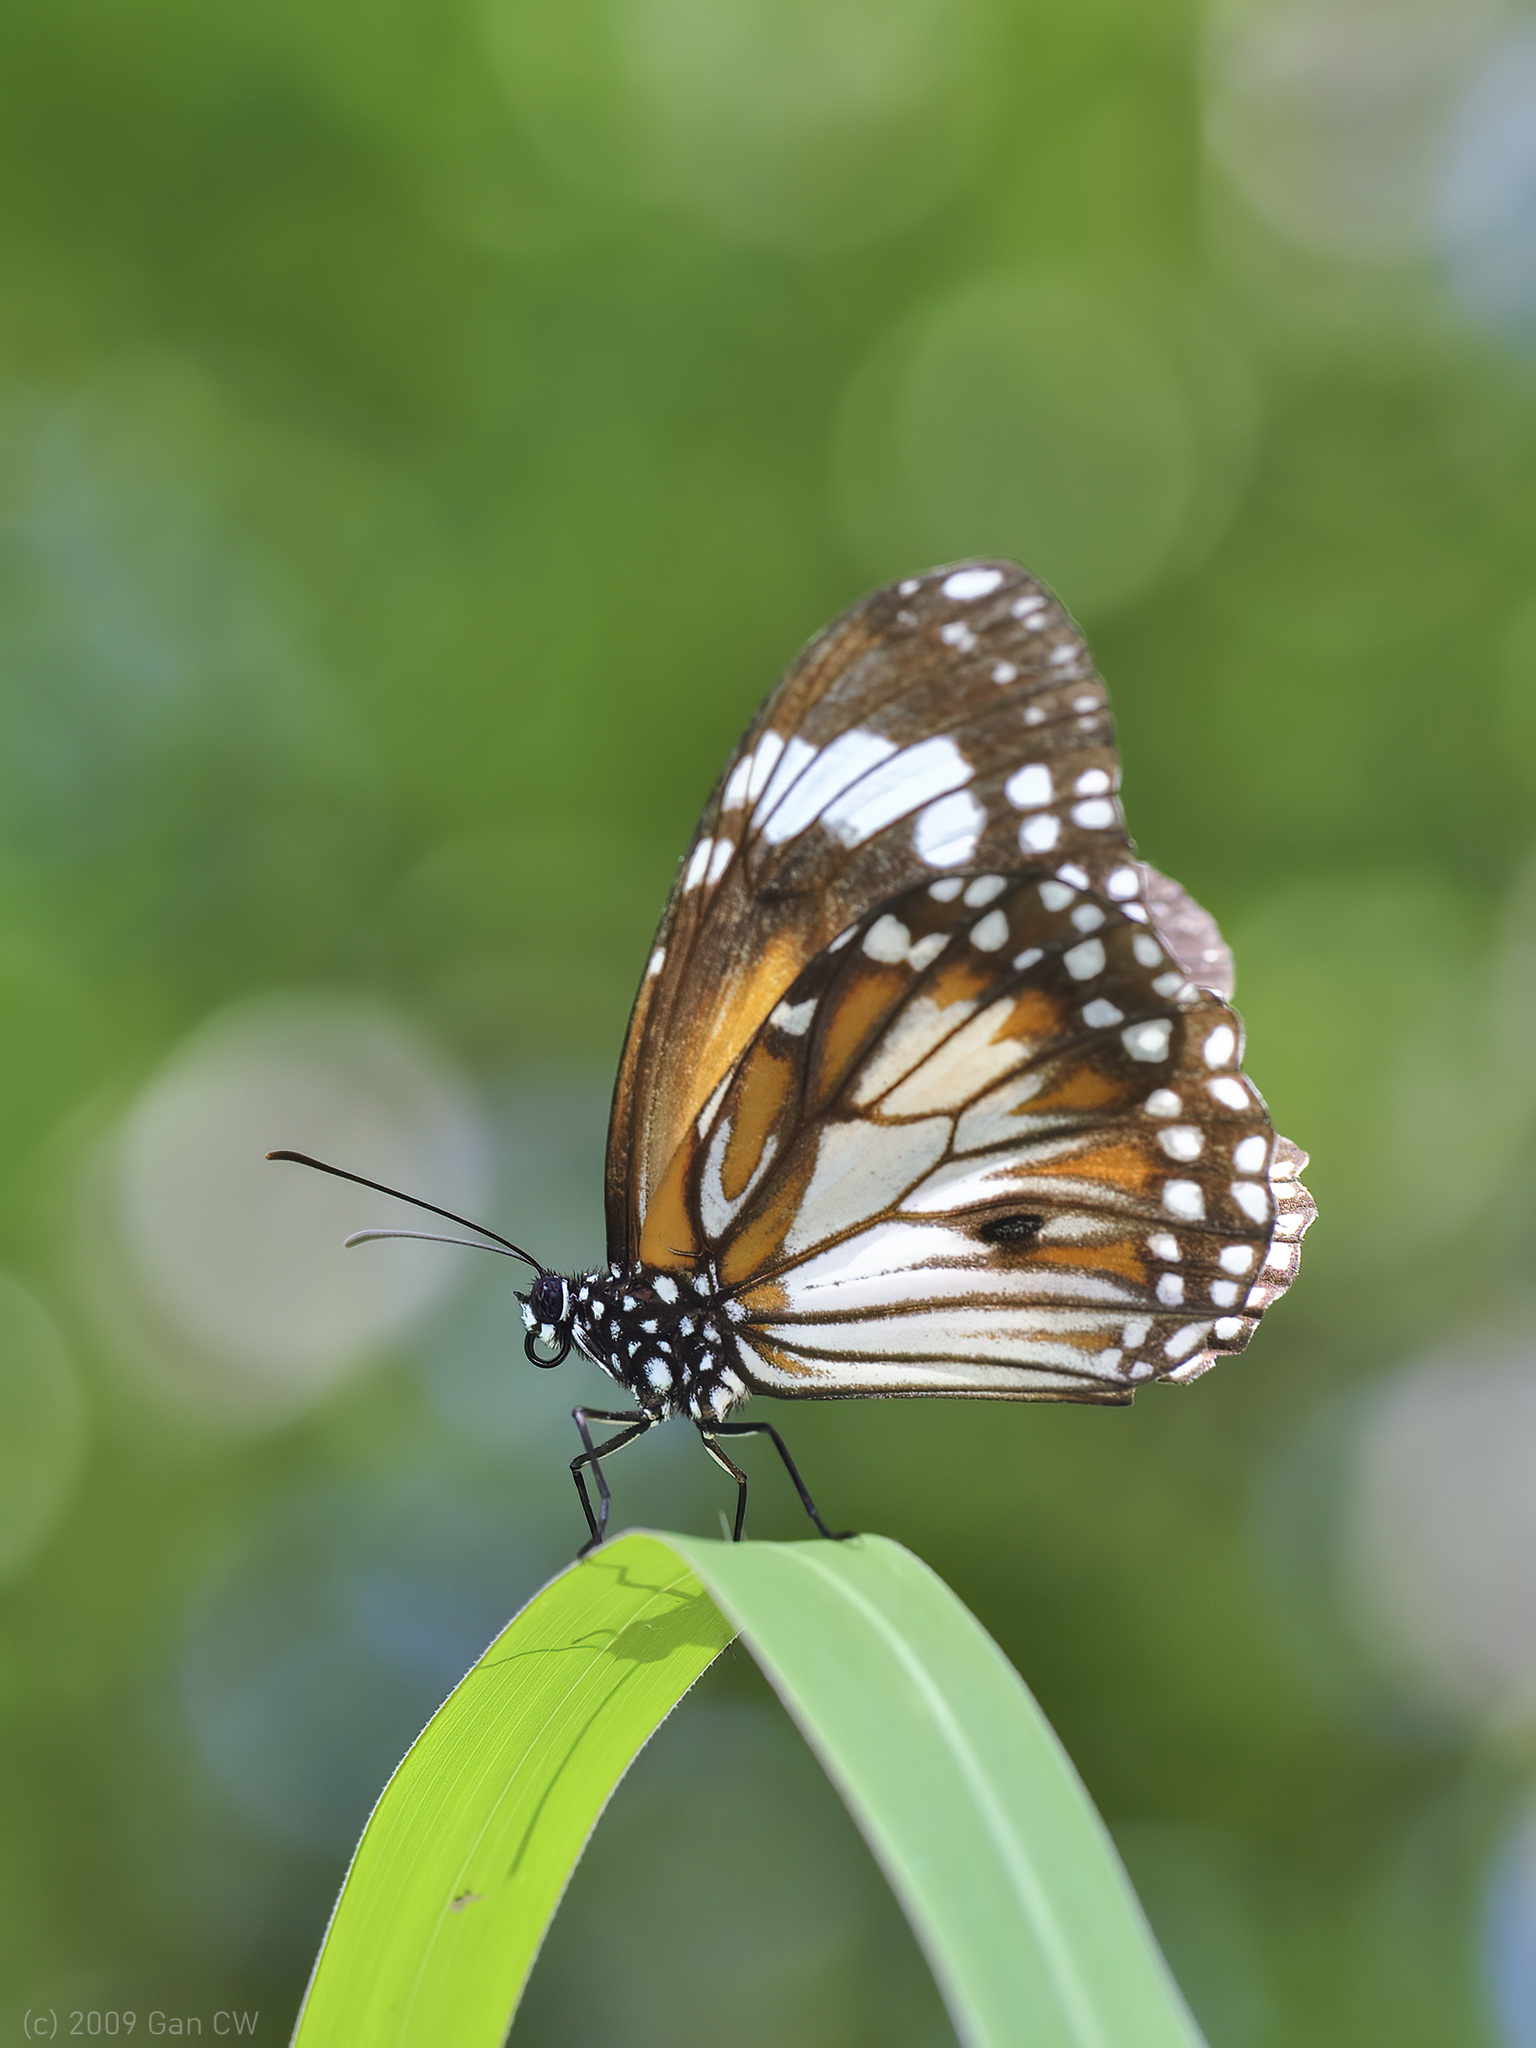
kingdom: Animalia
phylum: Arthropoda
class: Insecta
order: Lepidoptera
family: Nymphalidae
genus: Danaus
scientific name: Danaus affinis
